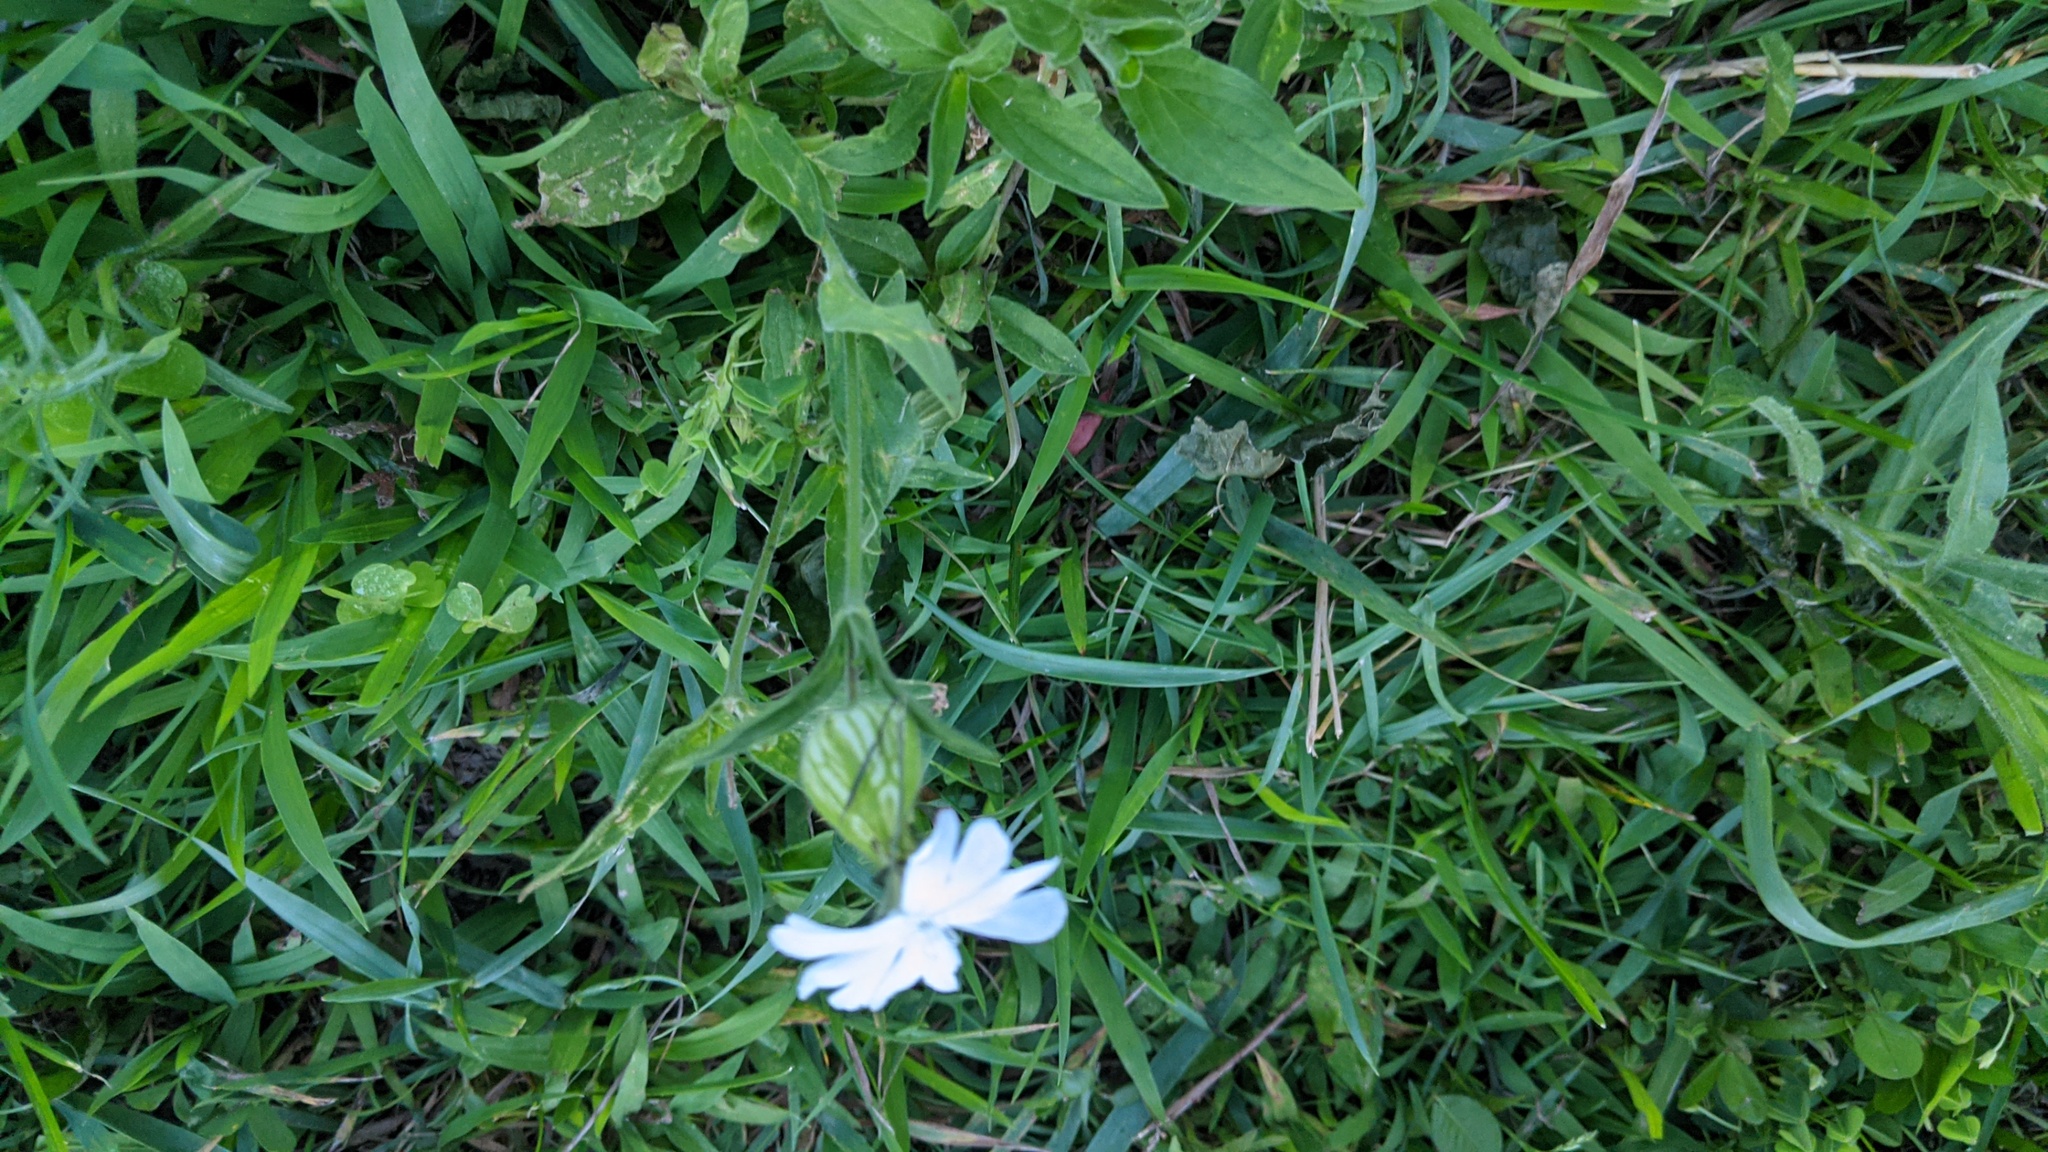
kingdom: Plantae
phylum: Tracheophyta
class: Magnoliopsida
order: Caryophyllales
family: Caryophyllaceae
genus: Silene
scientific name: Silene latifolia
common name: White campion
